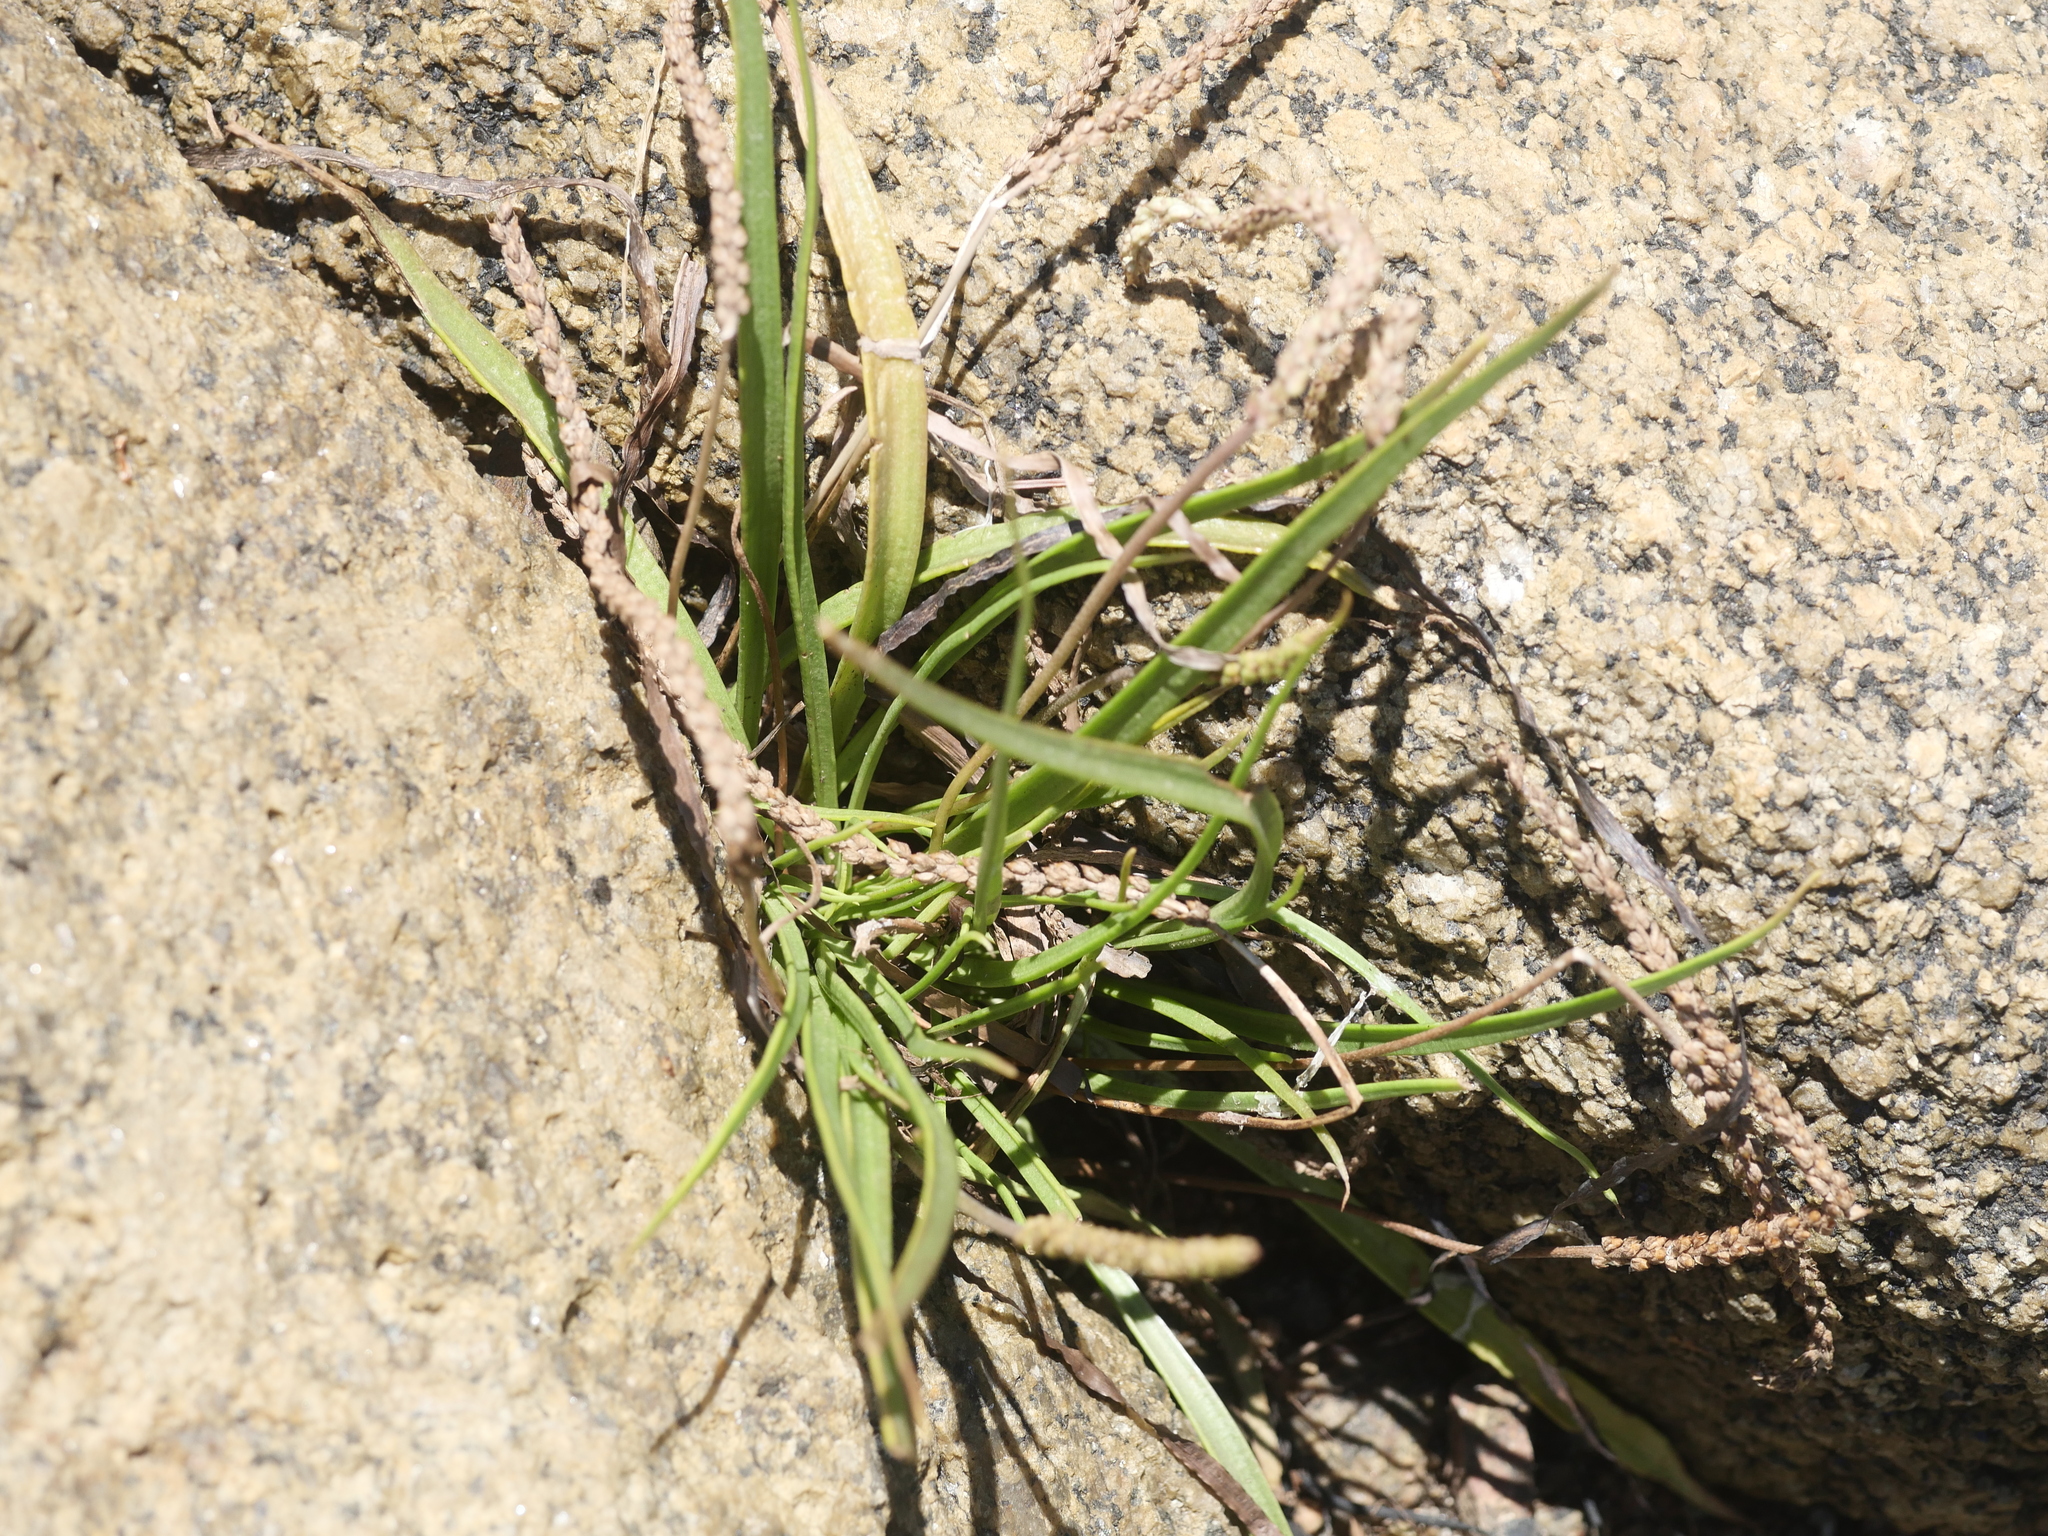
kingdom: Plantae
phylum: Tracheophyta
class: Magnoliopsida
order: Lamiales
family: Plantaginaceae
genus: Plantago
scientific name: Plantago maritima
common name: Sea plantain
